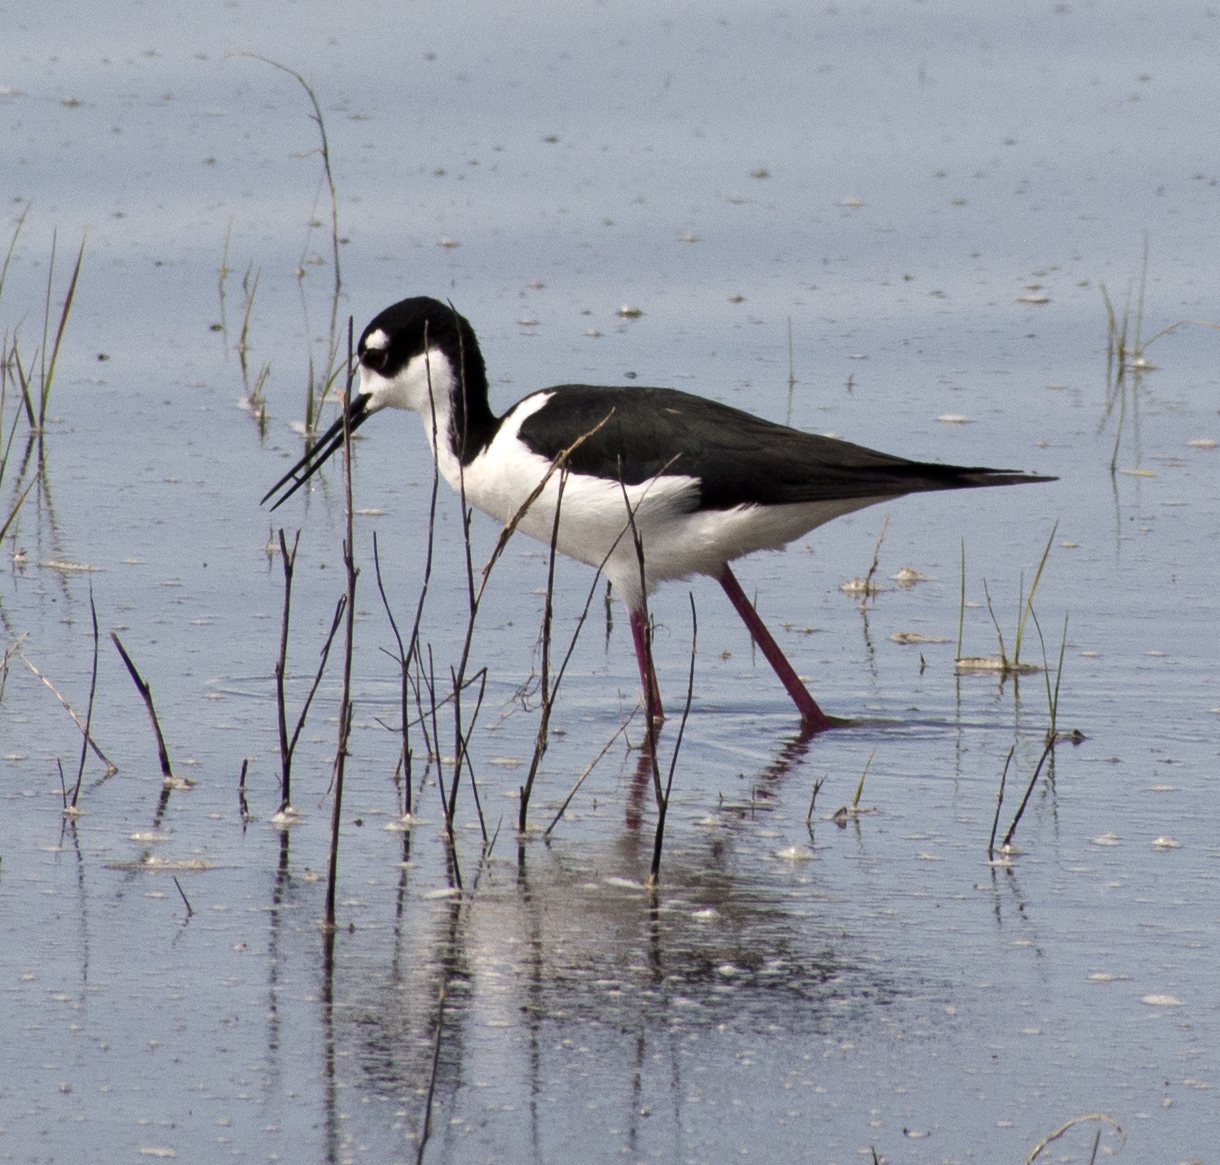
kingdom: Animalia
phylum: Chordata
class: Aves
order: Charadriiformes
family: Recurvirostridae
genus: Himantopus
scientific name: Himantopus mexicanus
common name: Black-necked stilt
